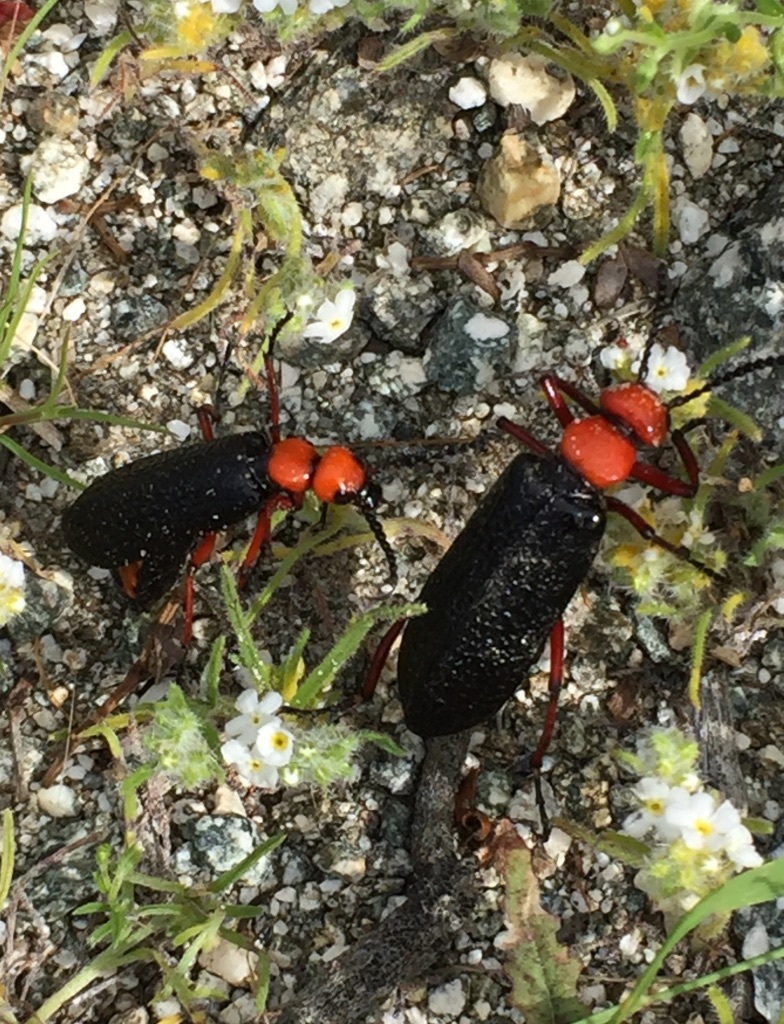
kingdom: Animalia
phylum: Arthropoda
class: Insecta
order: Coleoptera
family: Meloidae
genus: Lytta
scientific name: Lytta magister
